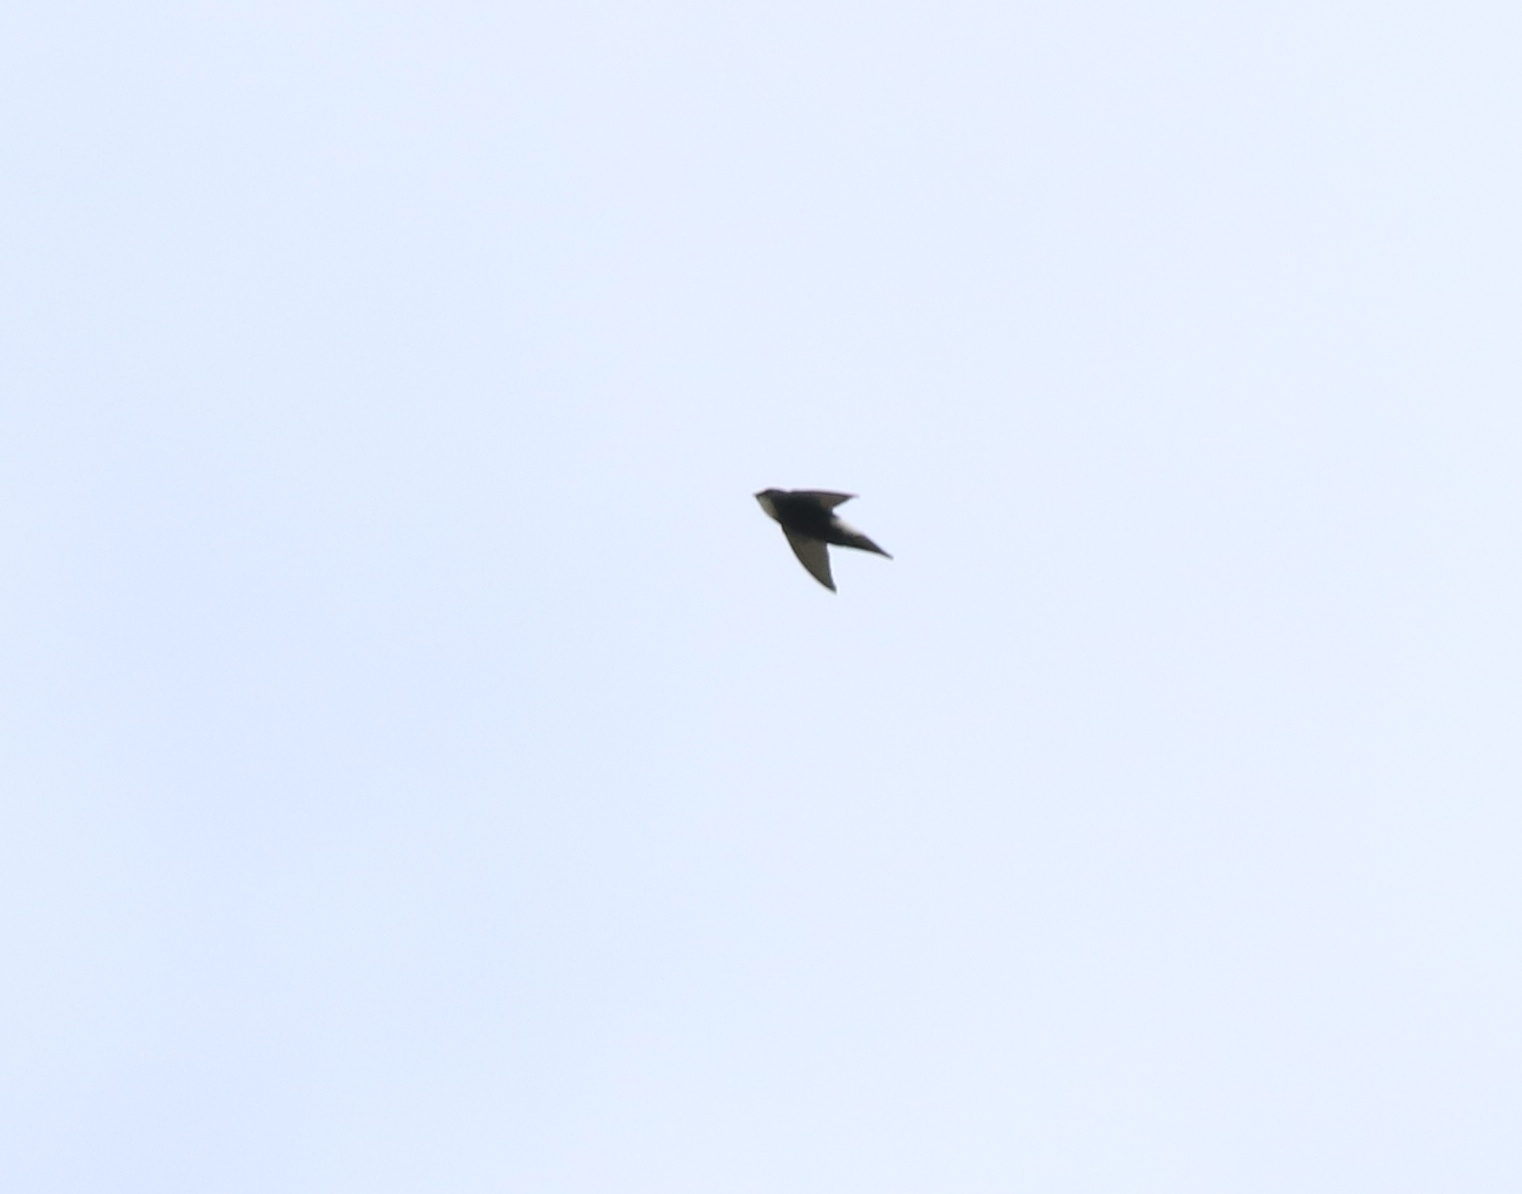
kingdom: Animalia
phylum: Chordata
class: Aves
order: Apodiformes
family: Apodidae
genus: Apus
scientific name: Apus affinis
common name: Little swift
